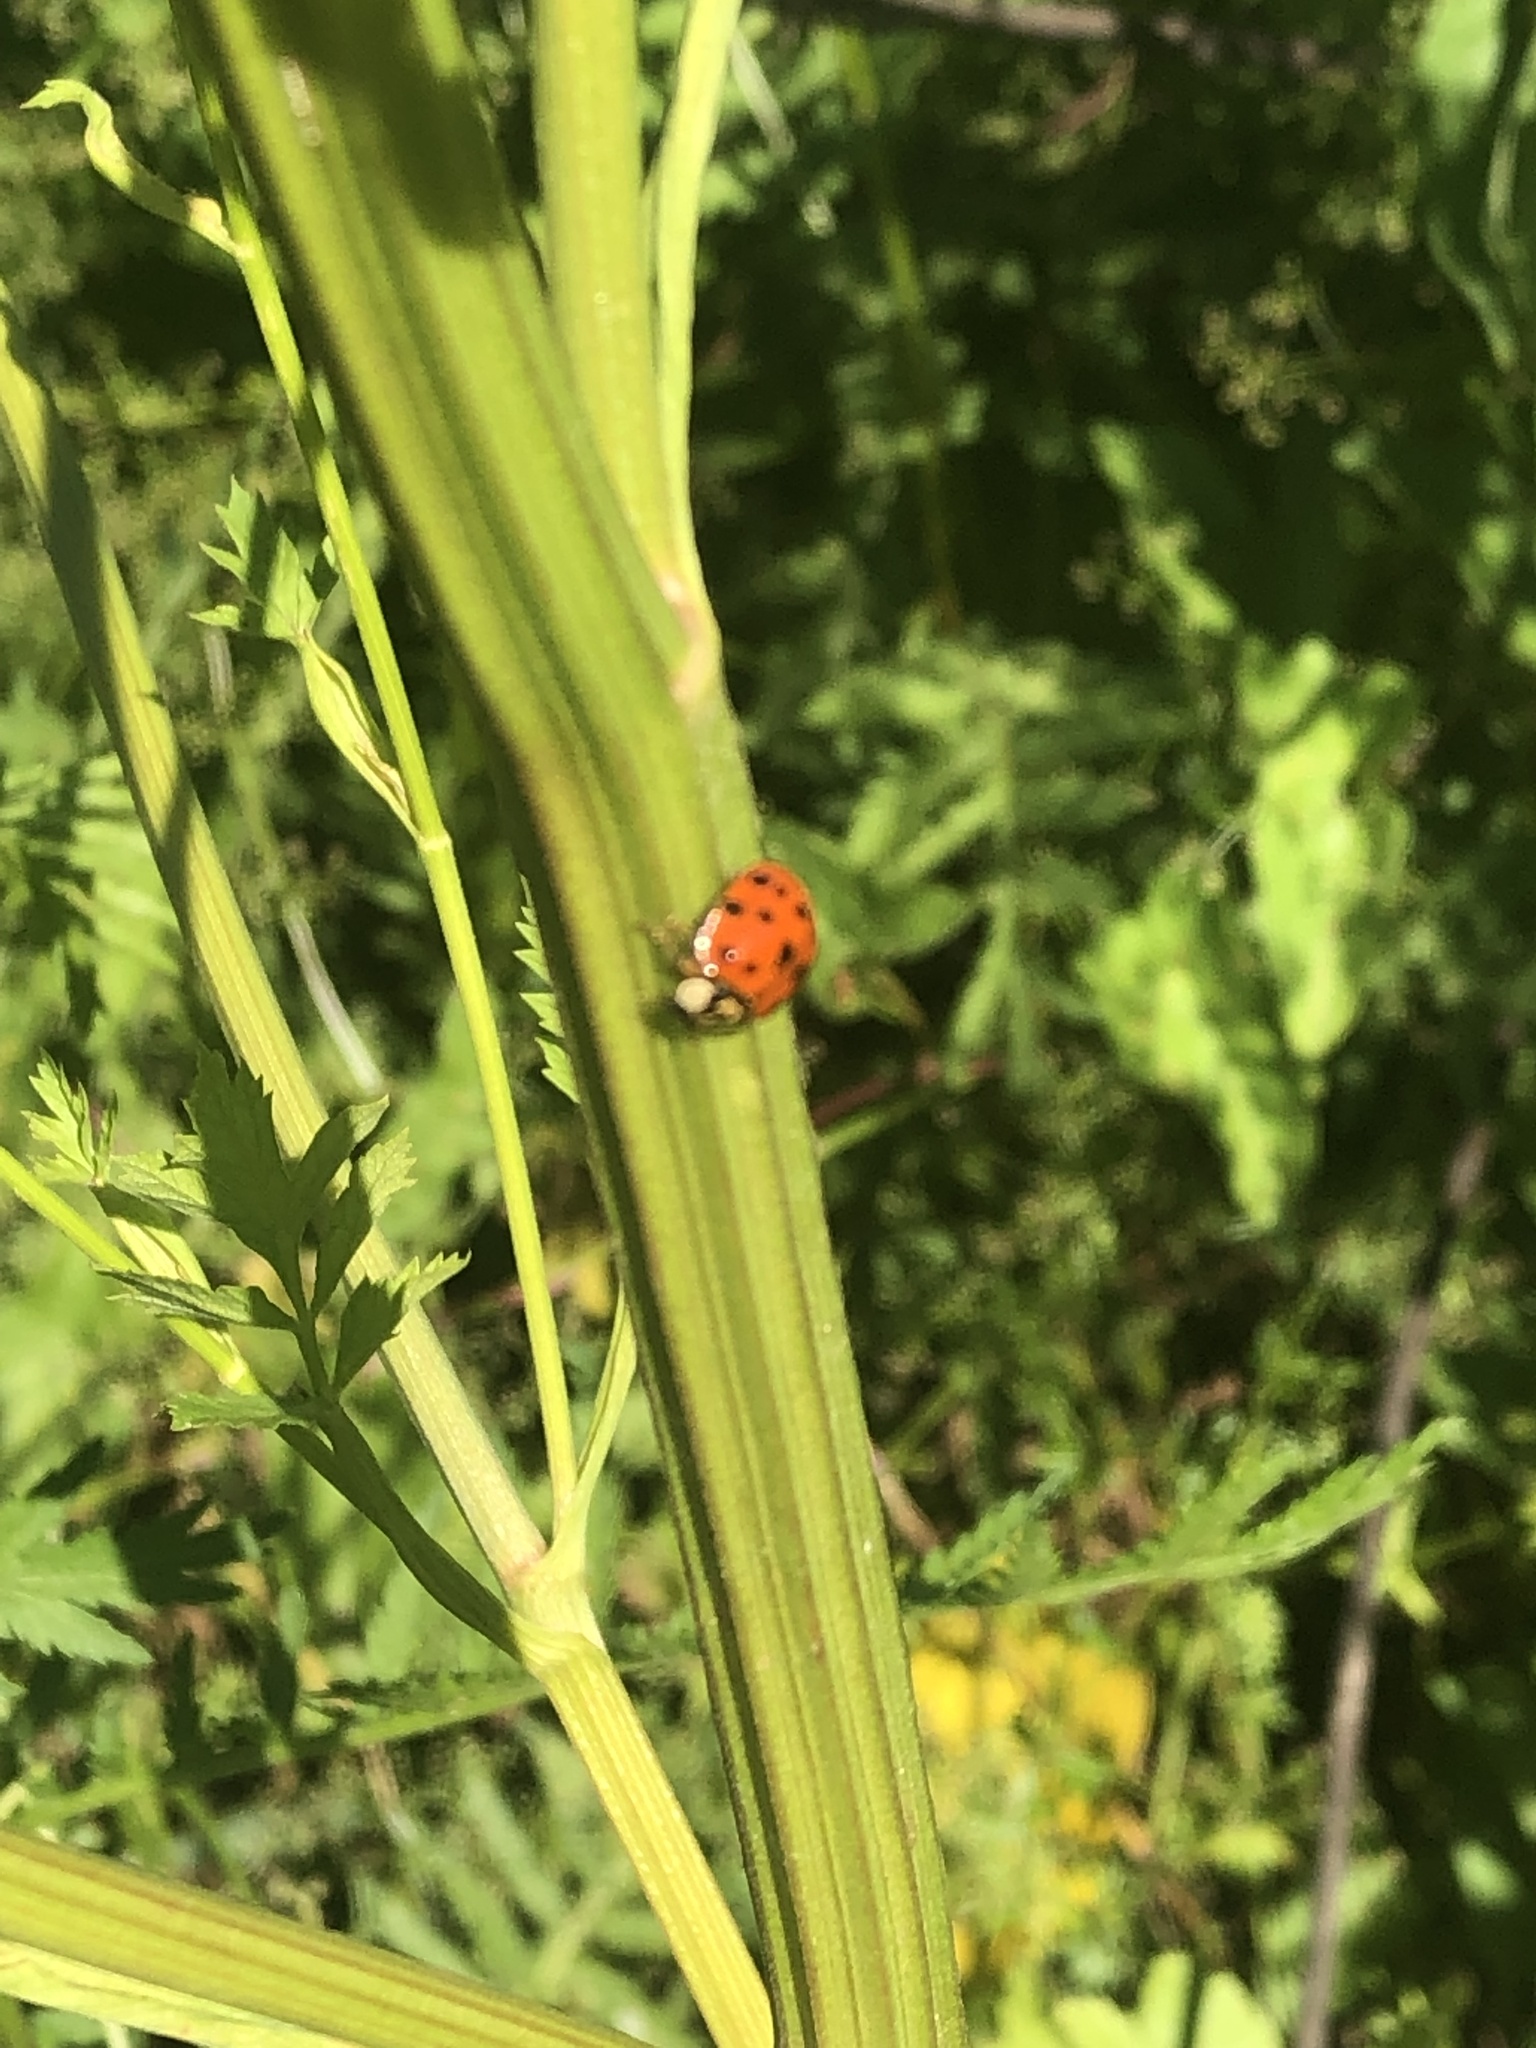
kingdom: Animalia
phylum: Arthropoda
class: Insecta
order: Coleoptera
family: Coccinellidae
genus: Harmonia
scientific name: Harmonia axyridis
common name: Harlequin ladybird
